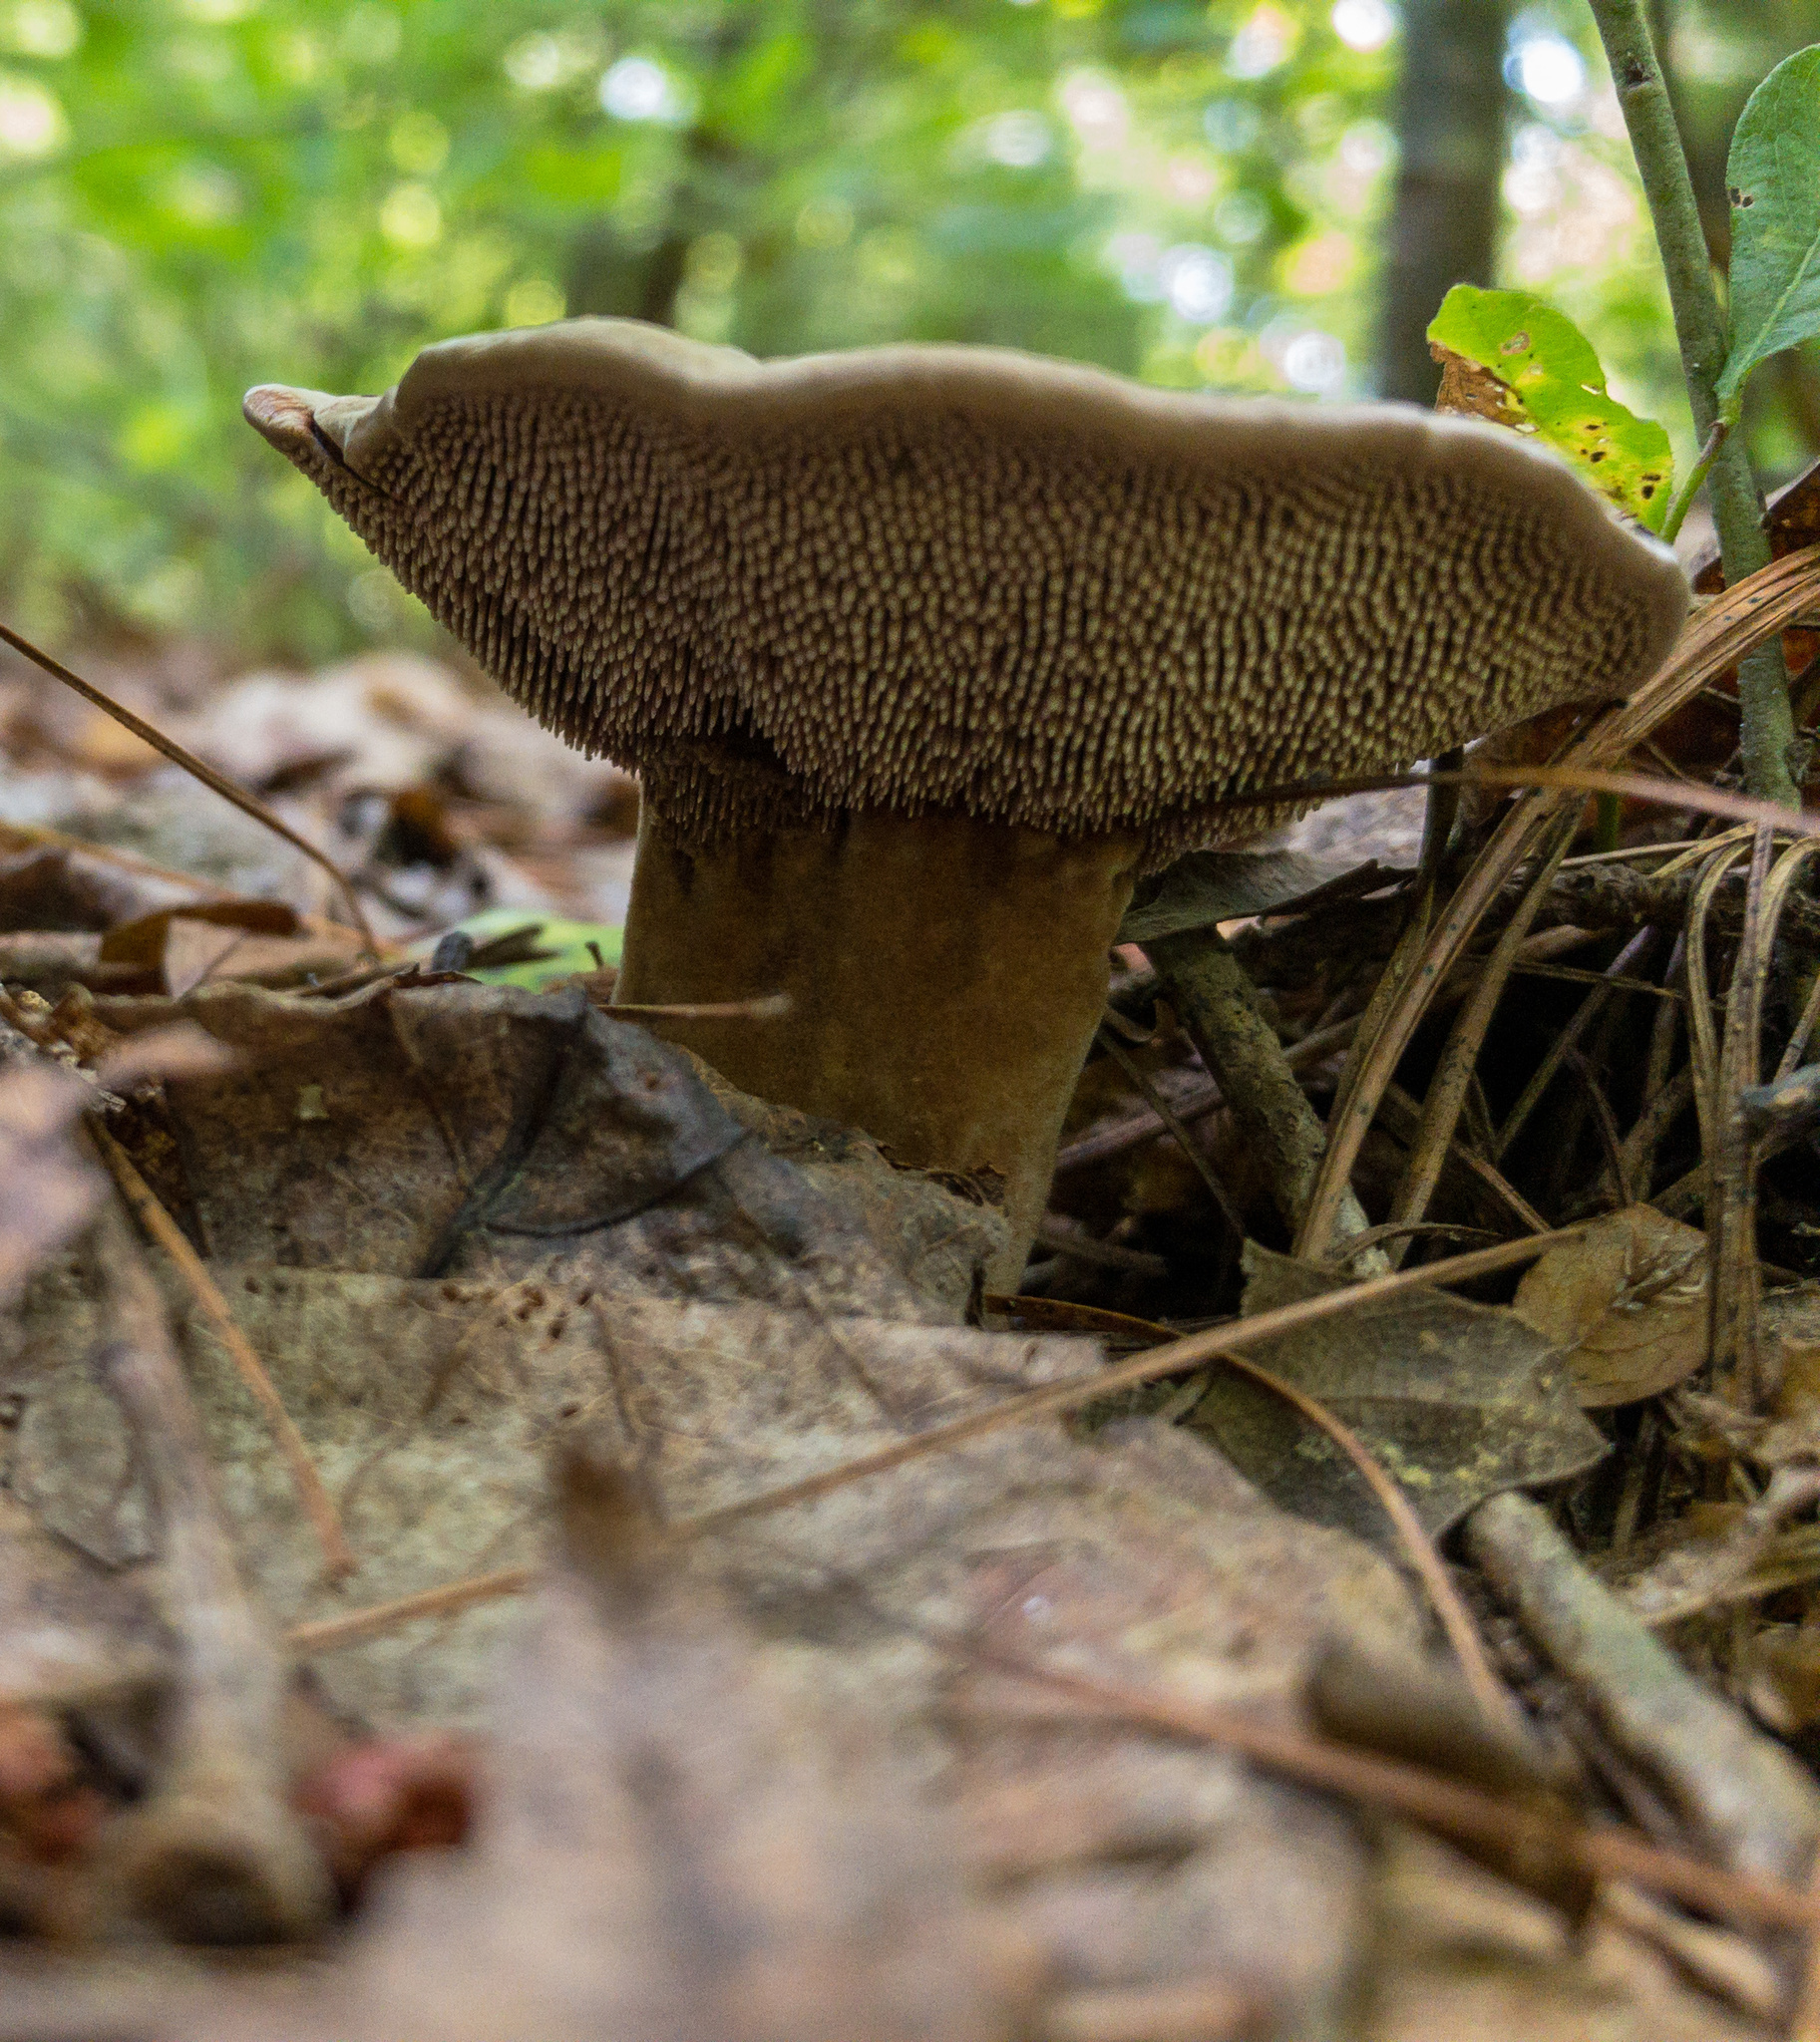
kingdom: Fungi
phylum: Basidiomycota
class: Agaricomycetes
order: Thelephorales
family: Bankeraceae
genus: Hydnellum
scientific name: Hydnellum spongiosipes
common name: Velvet tooth
